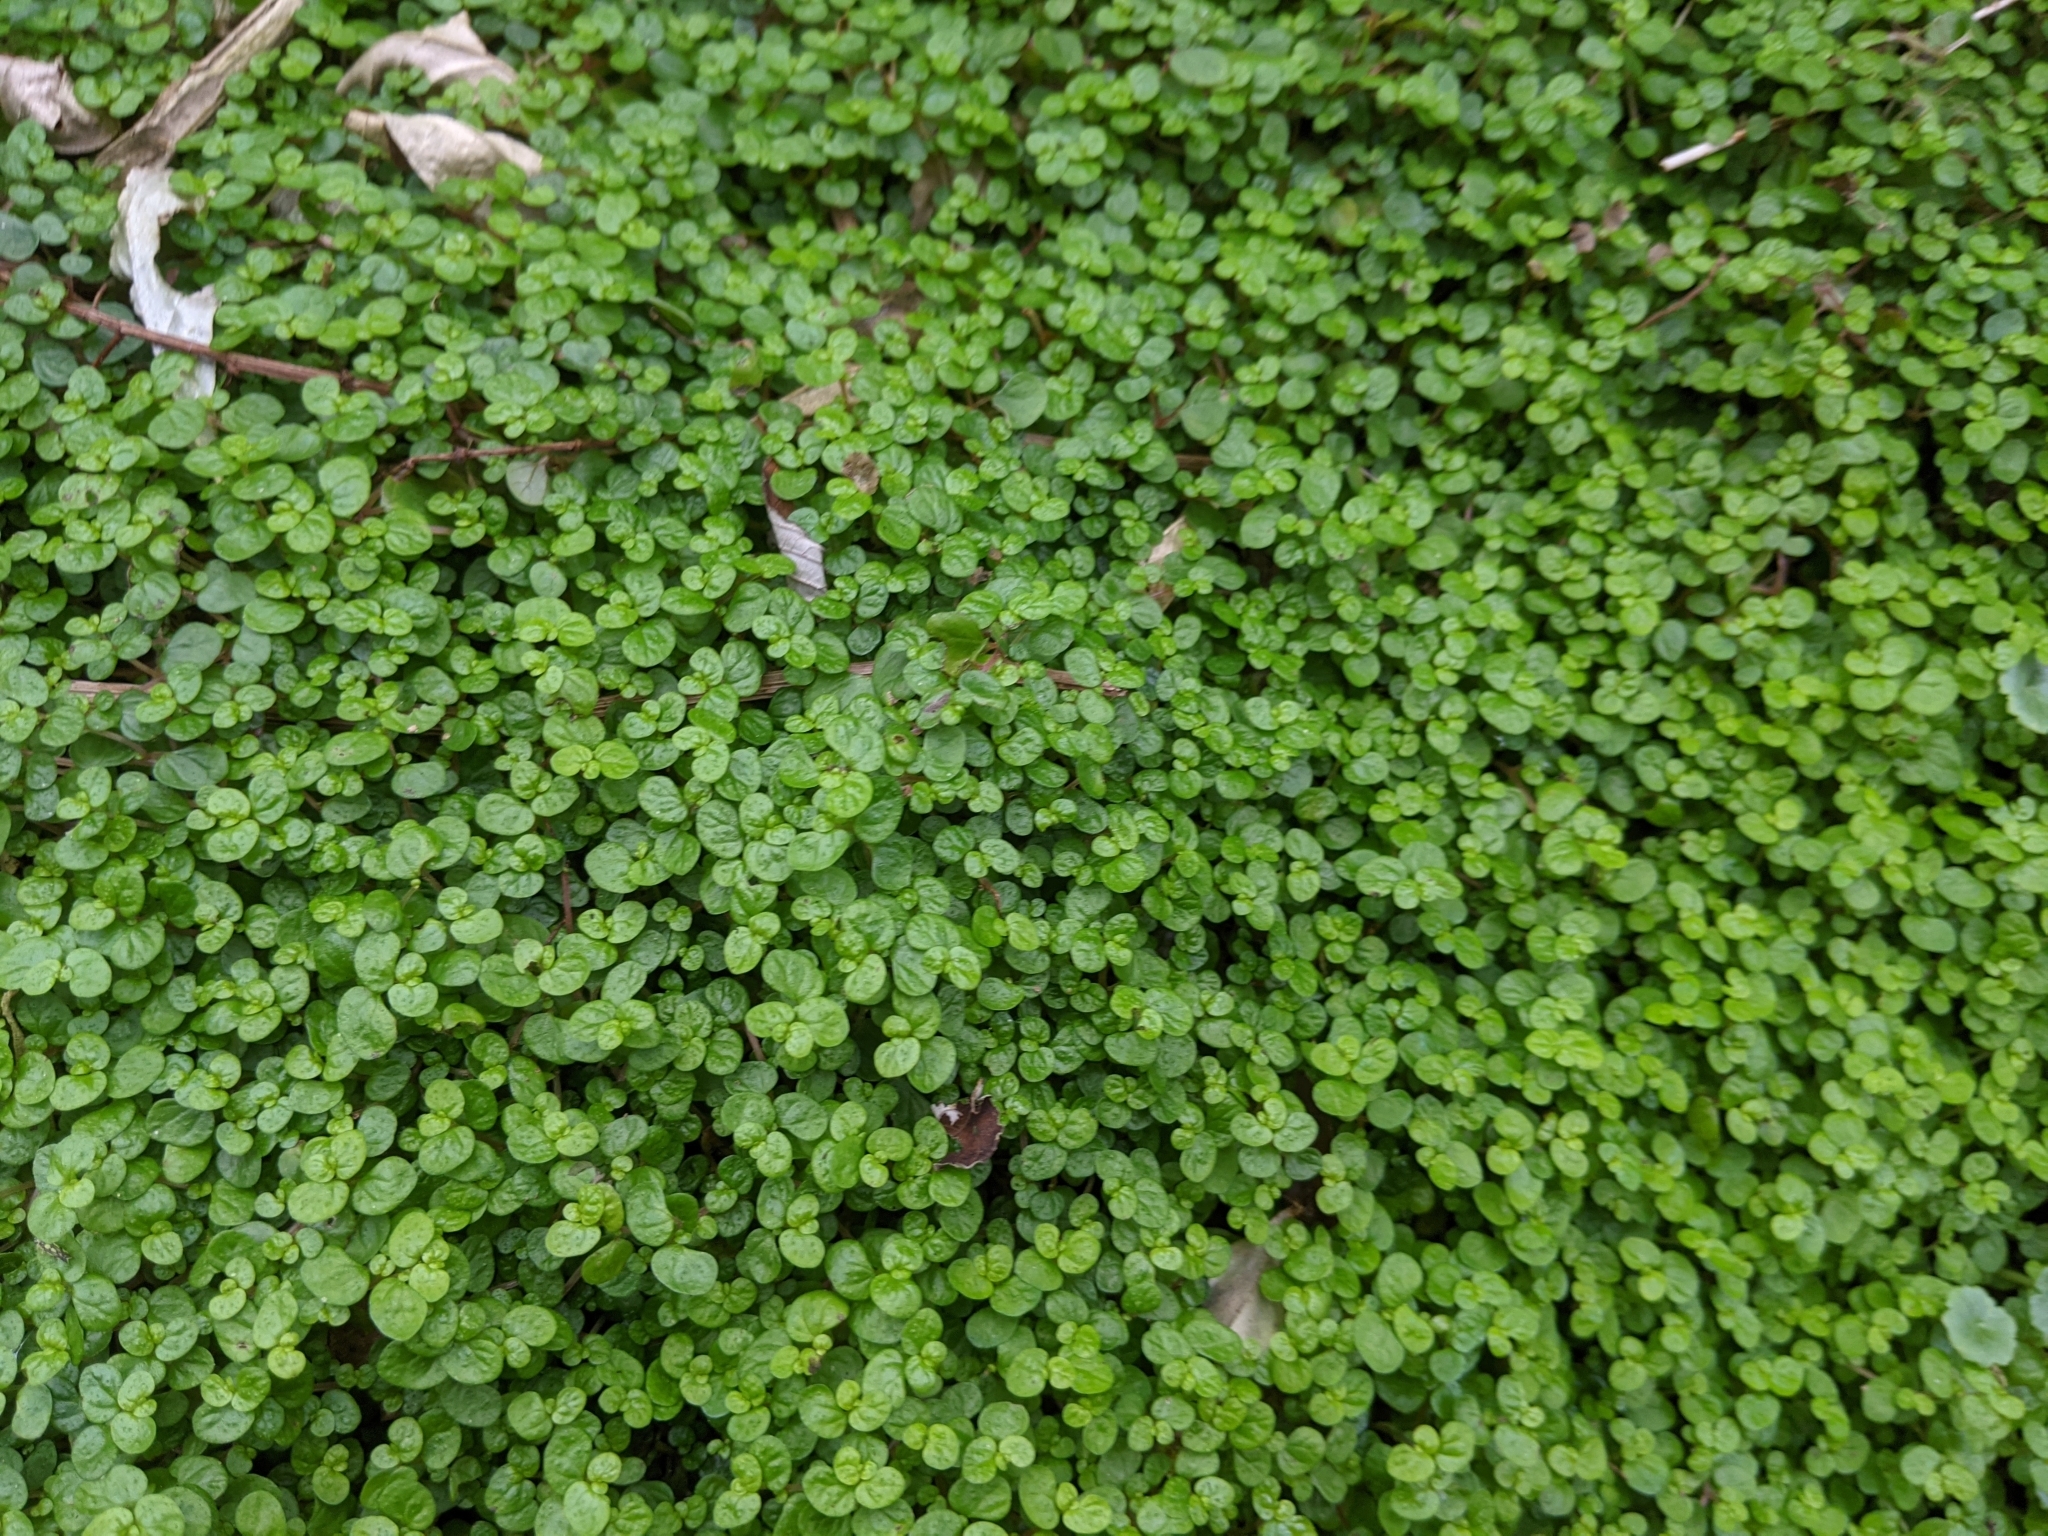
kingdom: Plantae
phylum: Tracheophyta
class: Magnoliopsida
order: Rosales
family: Urticaceae
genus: Soleirolia
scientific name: Soleirolia soleirolii
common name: Mind-your-own-business
